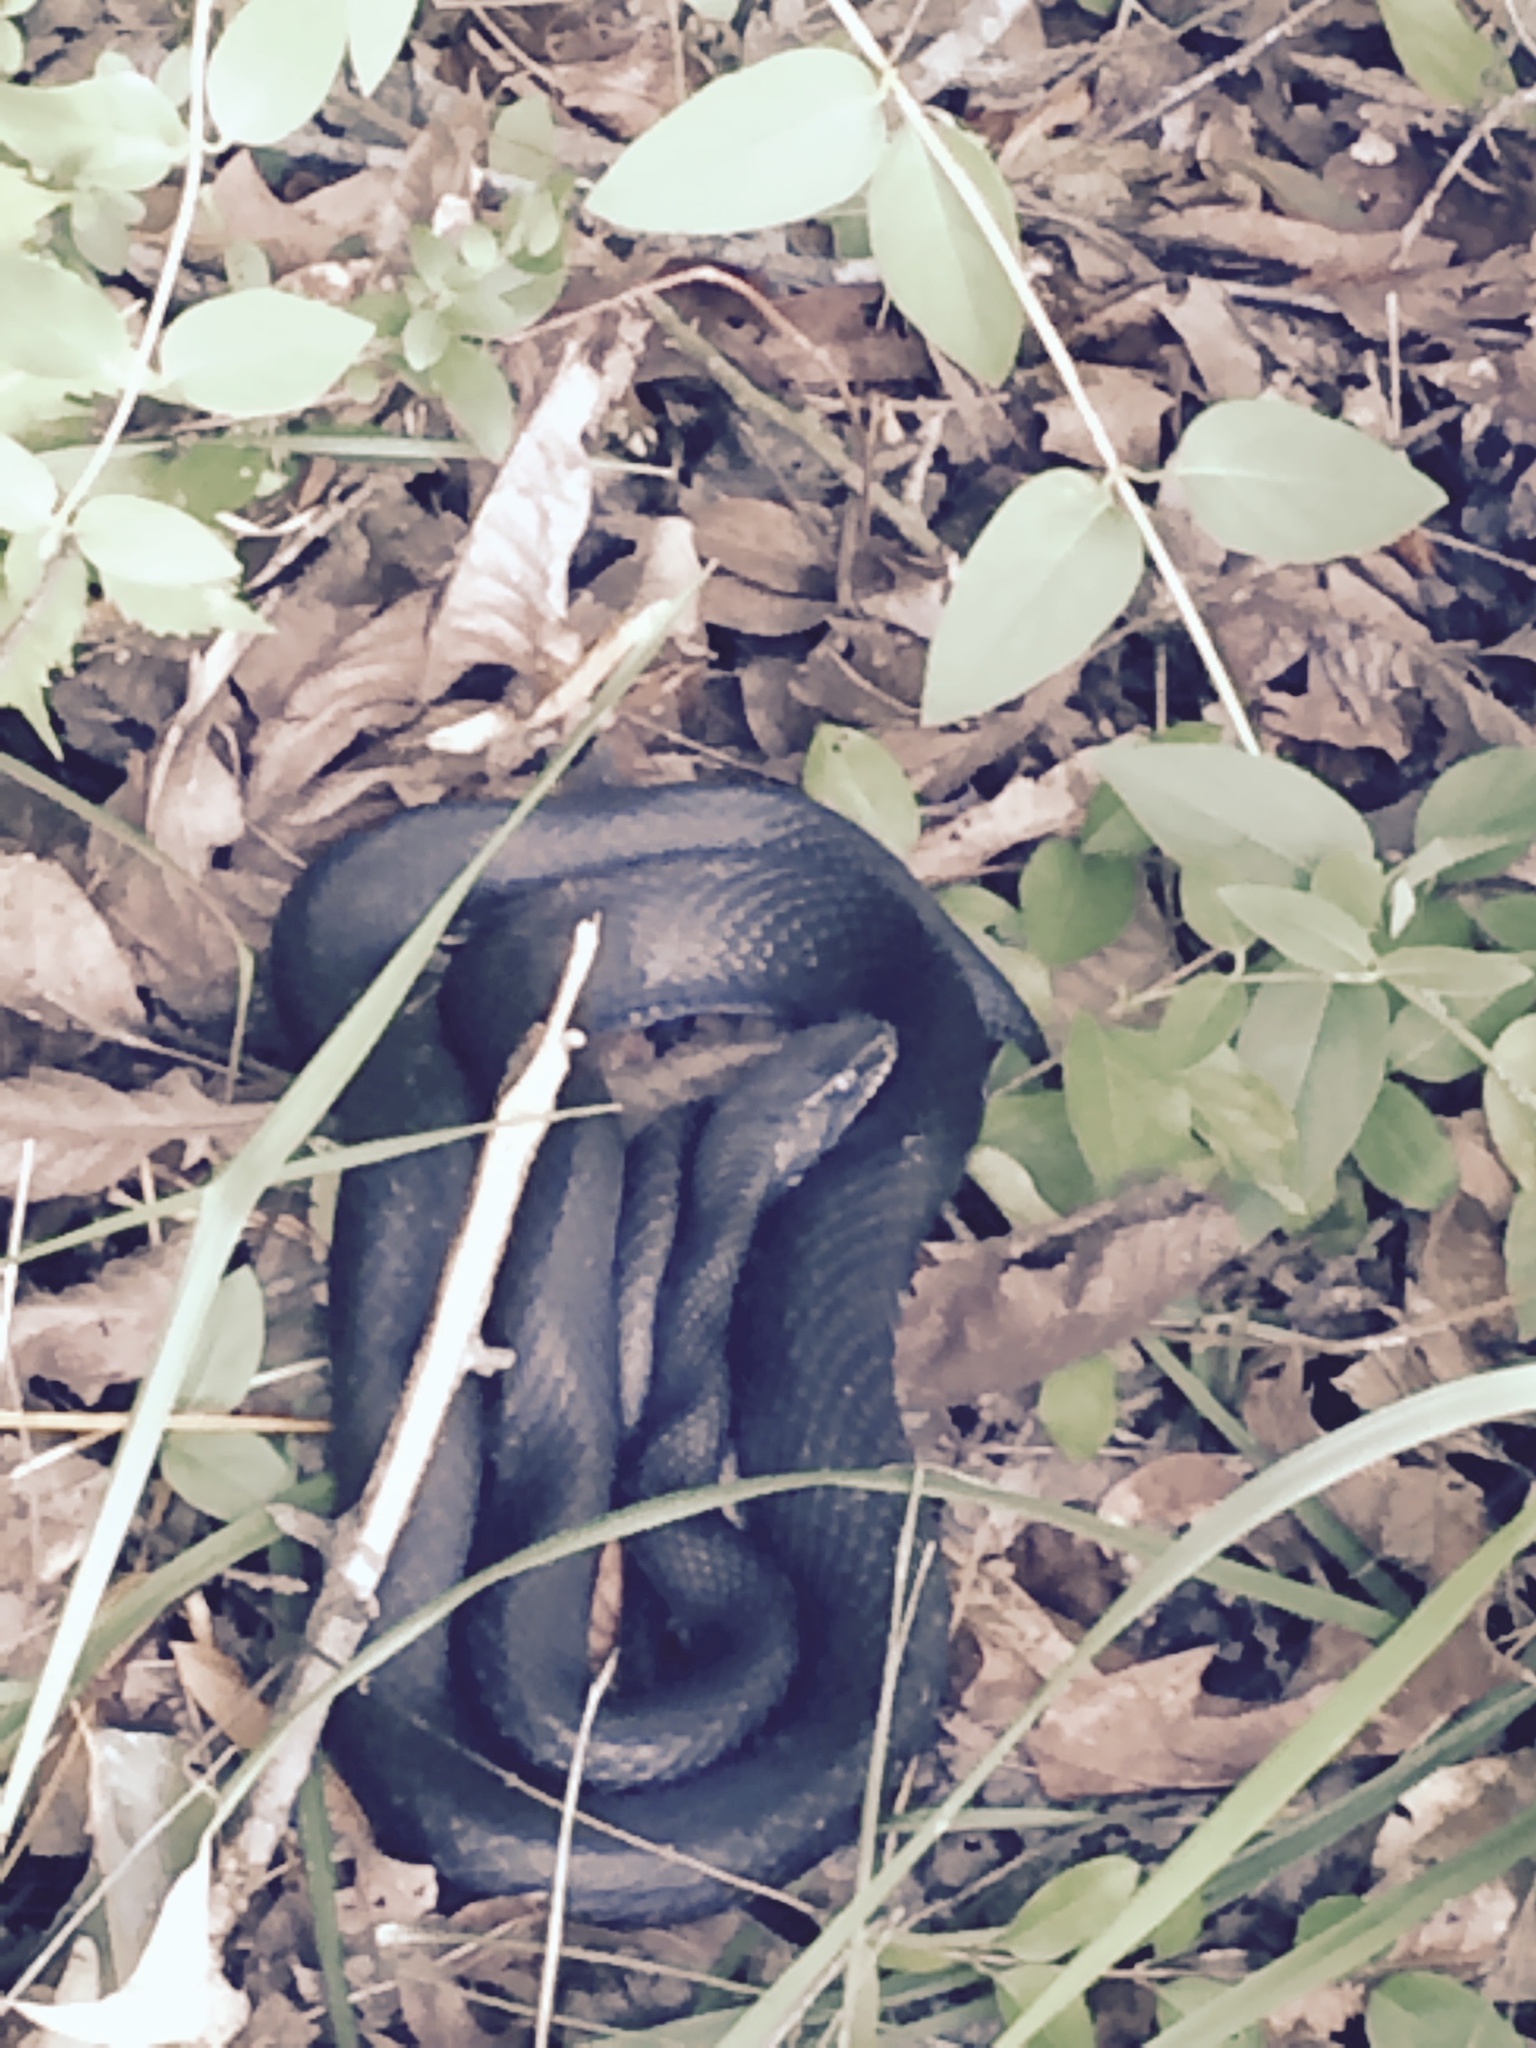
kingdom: Animalia
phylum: Chordata
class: Squamata
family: Colubridae
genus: Coluber
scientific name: Coluber constrictor
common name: Eastern racer
